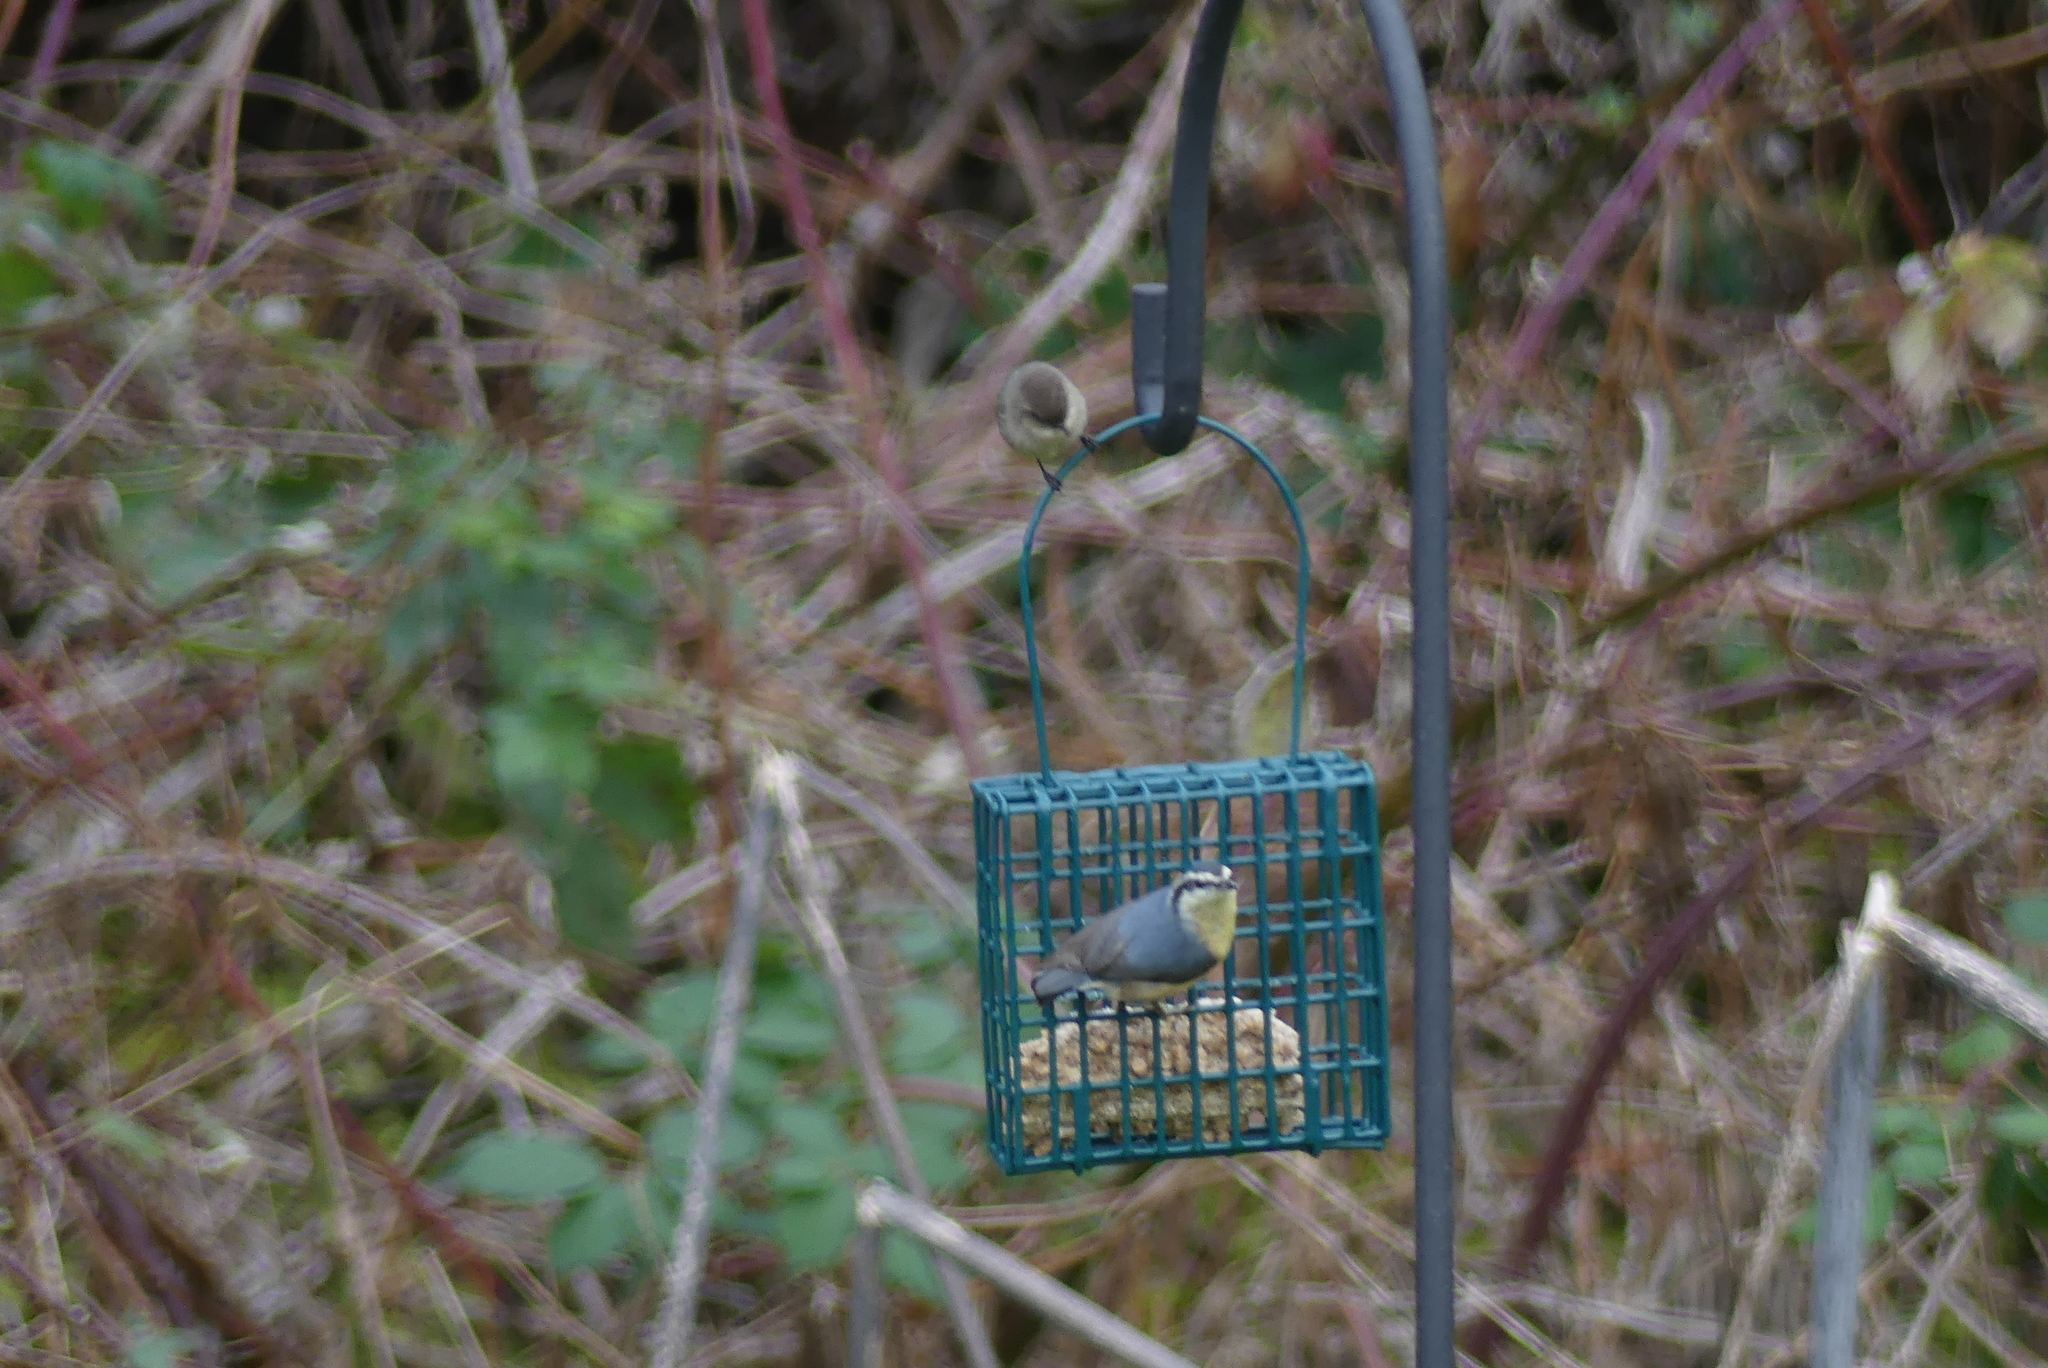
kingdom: Animalia
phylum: Chordata
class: Aves
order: Passeriformes
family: Sittidae
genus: Sitta
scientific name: Sitta canadensis
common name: Red-breasted nuthatch
